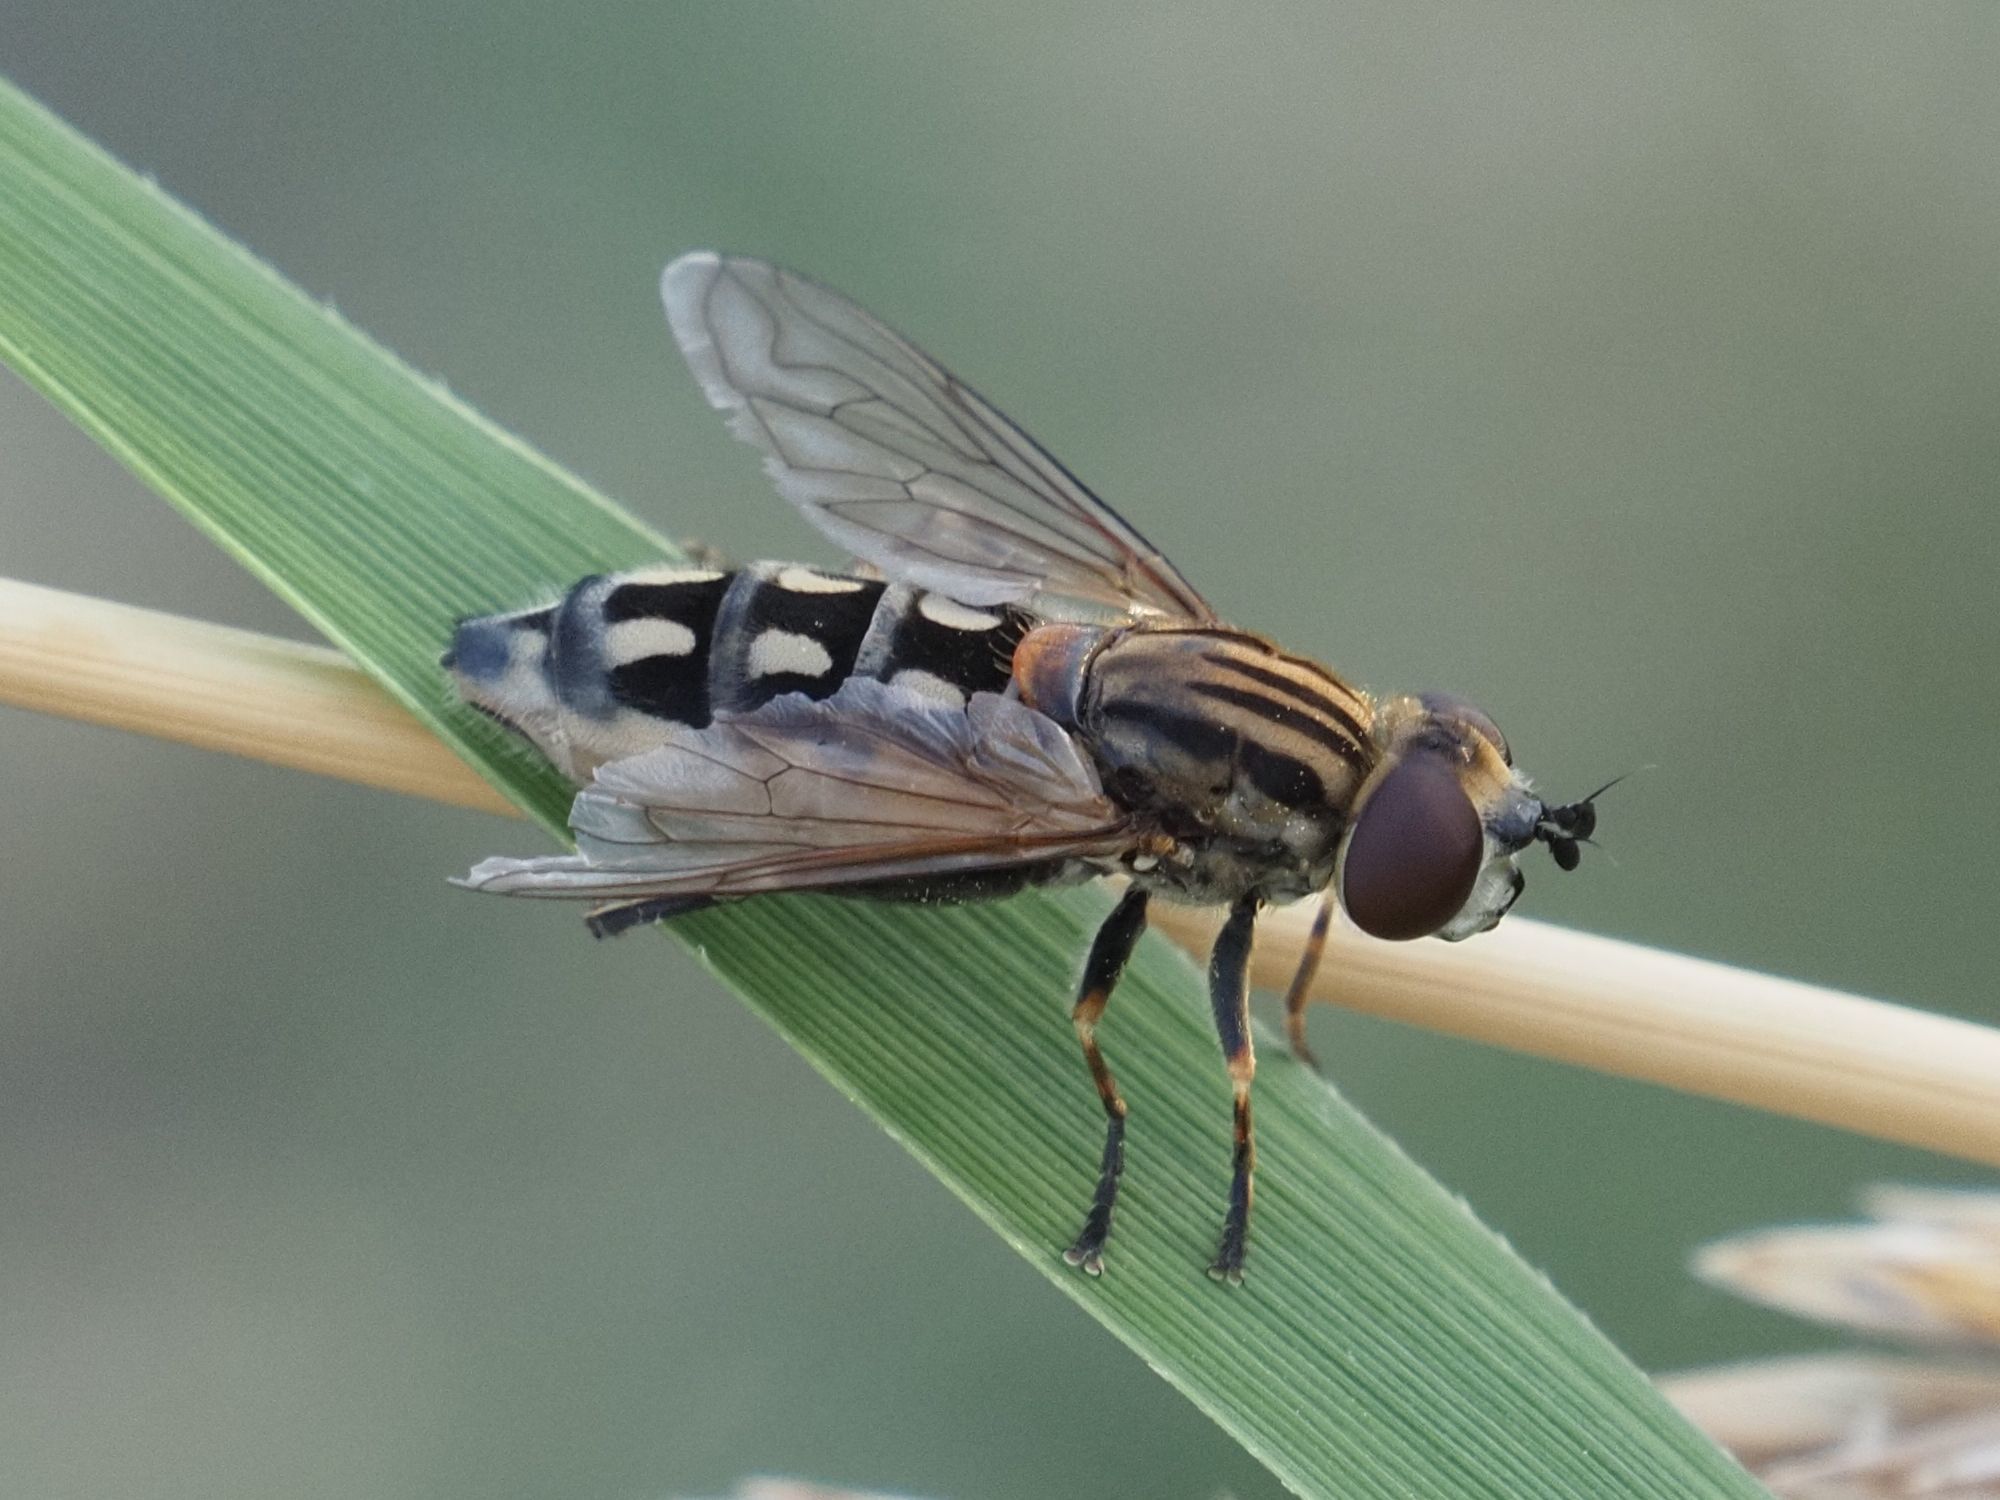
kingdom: Animalia
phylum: Arthropoda
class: Insecta
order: Diptera
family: Syrphidae
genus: Lejops
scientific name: Lejops vittatus
